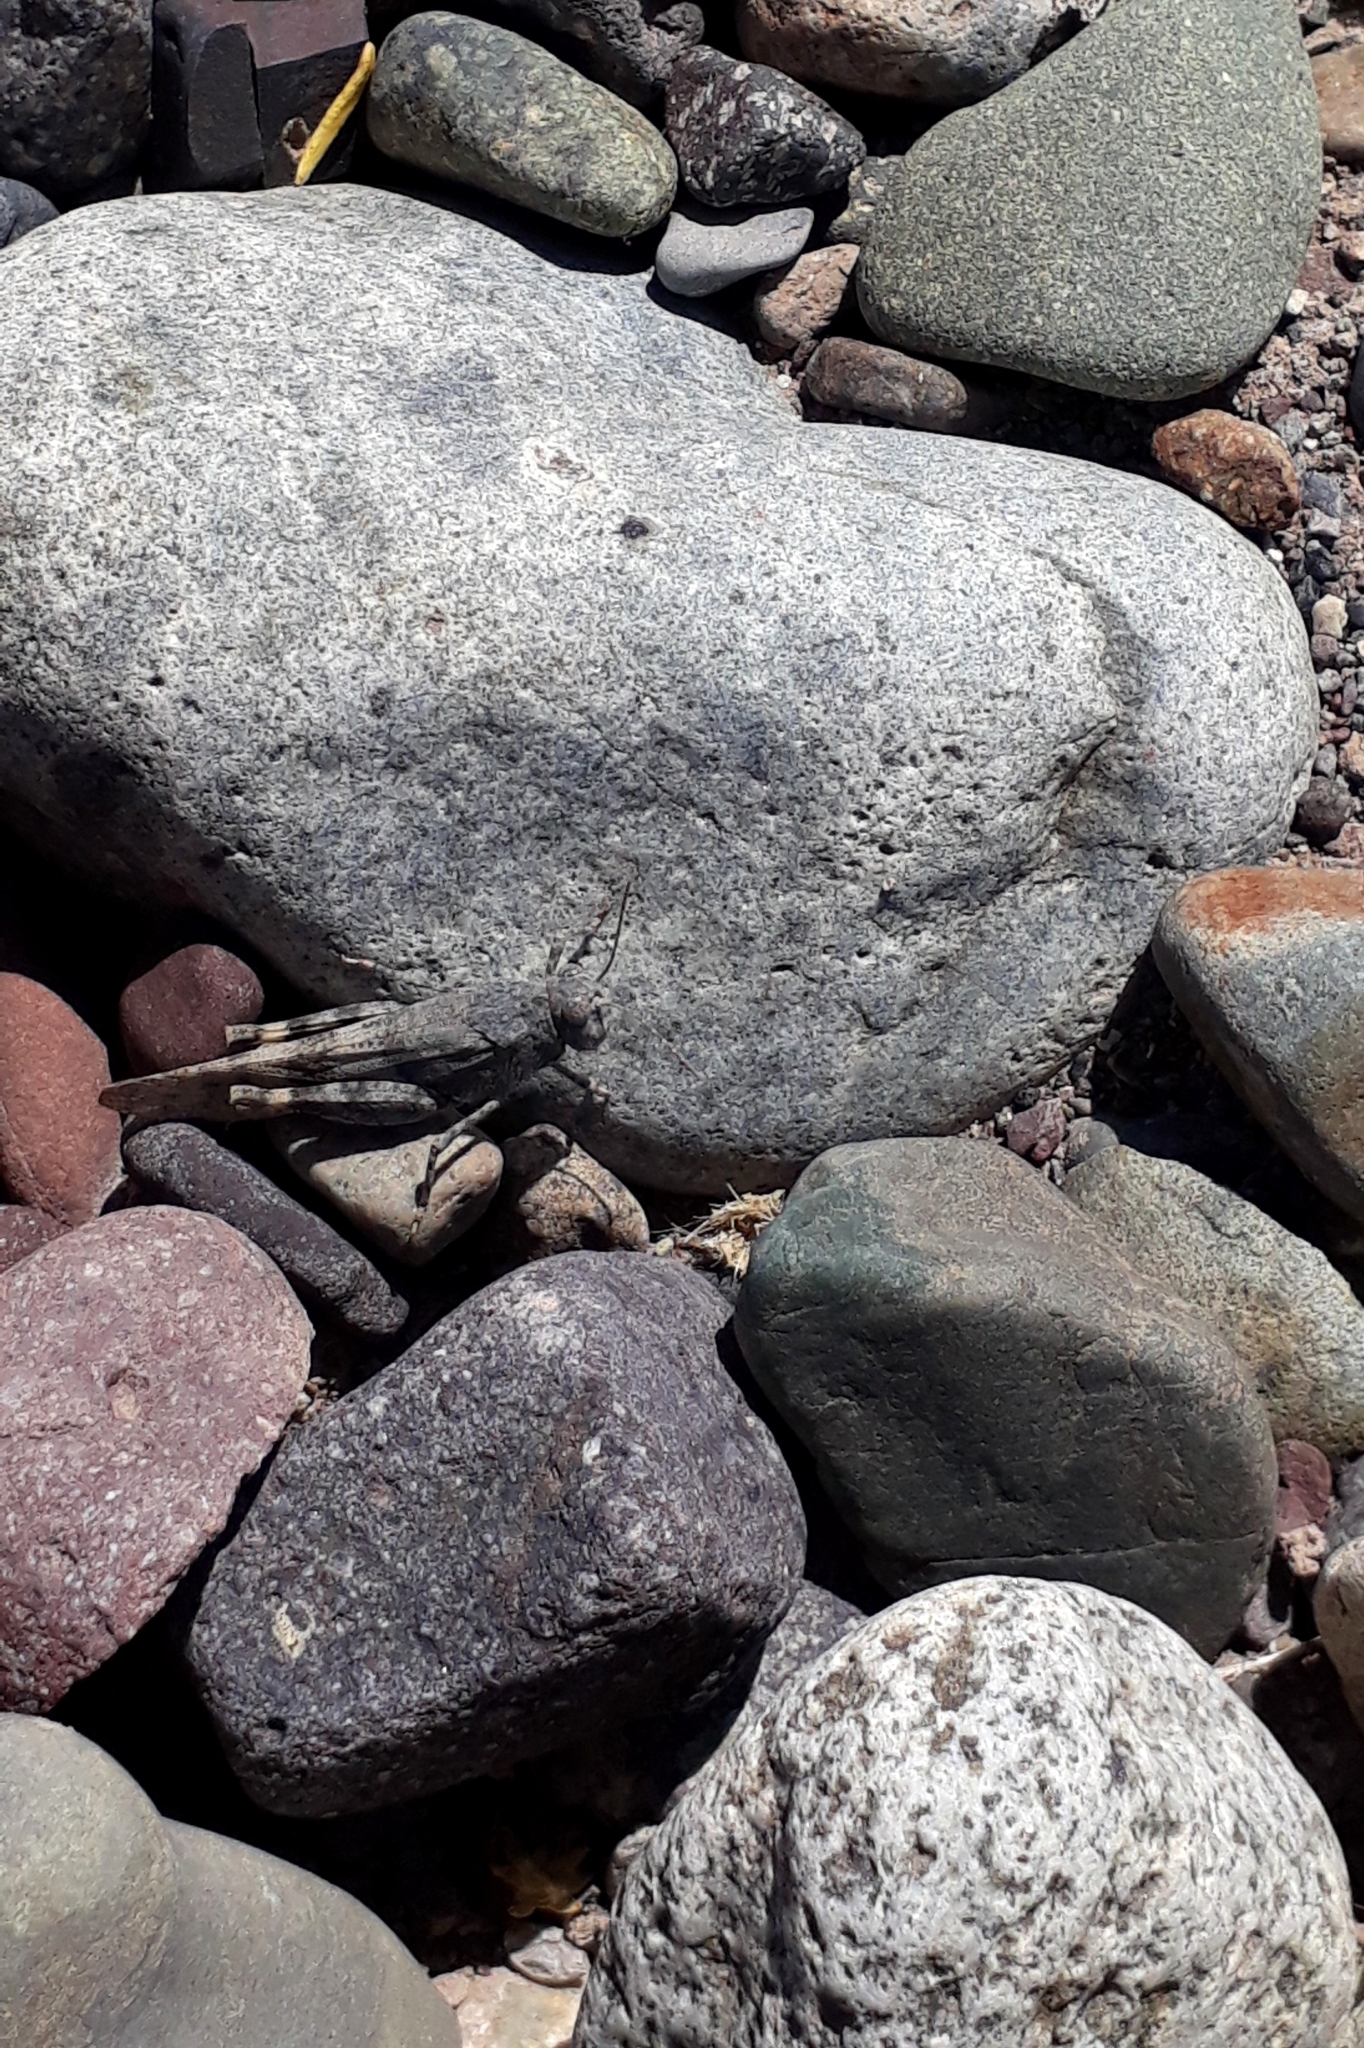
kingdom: Animalia
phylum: Arthropoda
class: Insecta
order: Orthoptera
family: Acrididae
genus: Trimerotropis
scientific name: Trimerotropis pallidipennis
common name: Pallid-winged grasshopper
